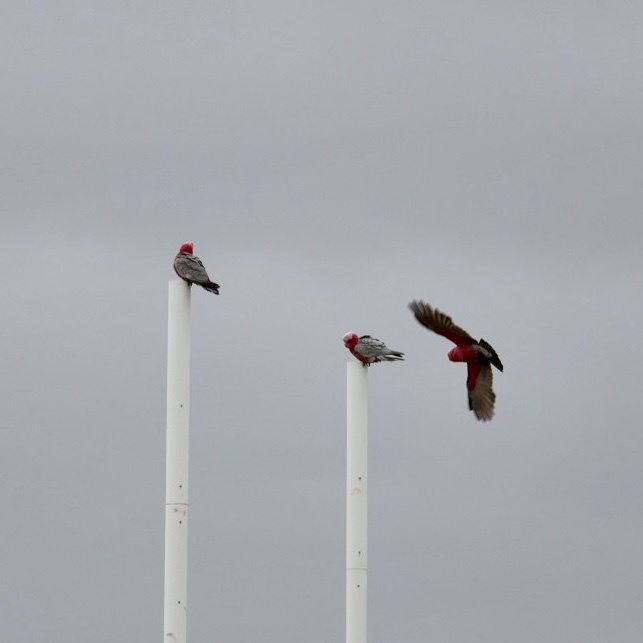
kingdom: Animalia
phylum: Chordata
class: Aves
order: Psittaciformes
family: Psittacidae
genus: Eolophus
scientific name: Eolophus roseicapilla
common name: Galah
